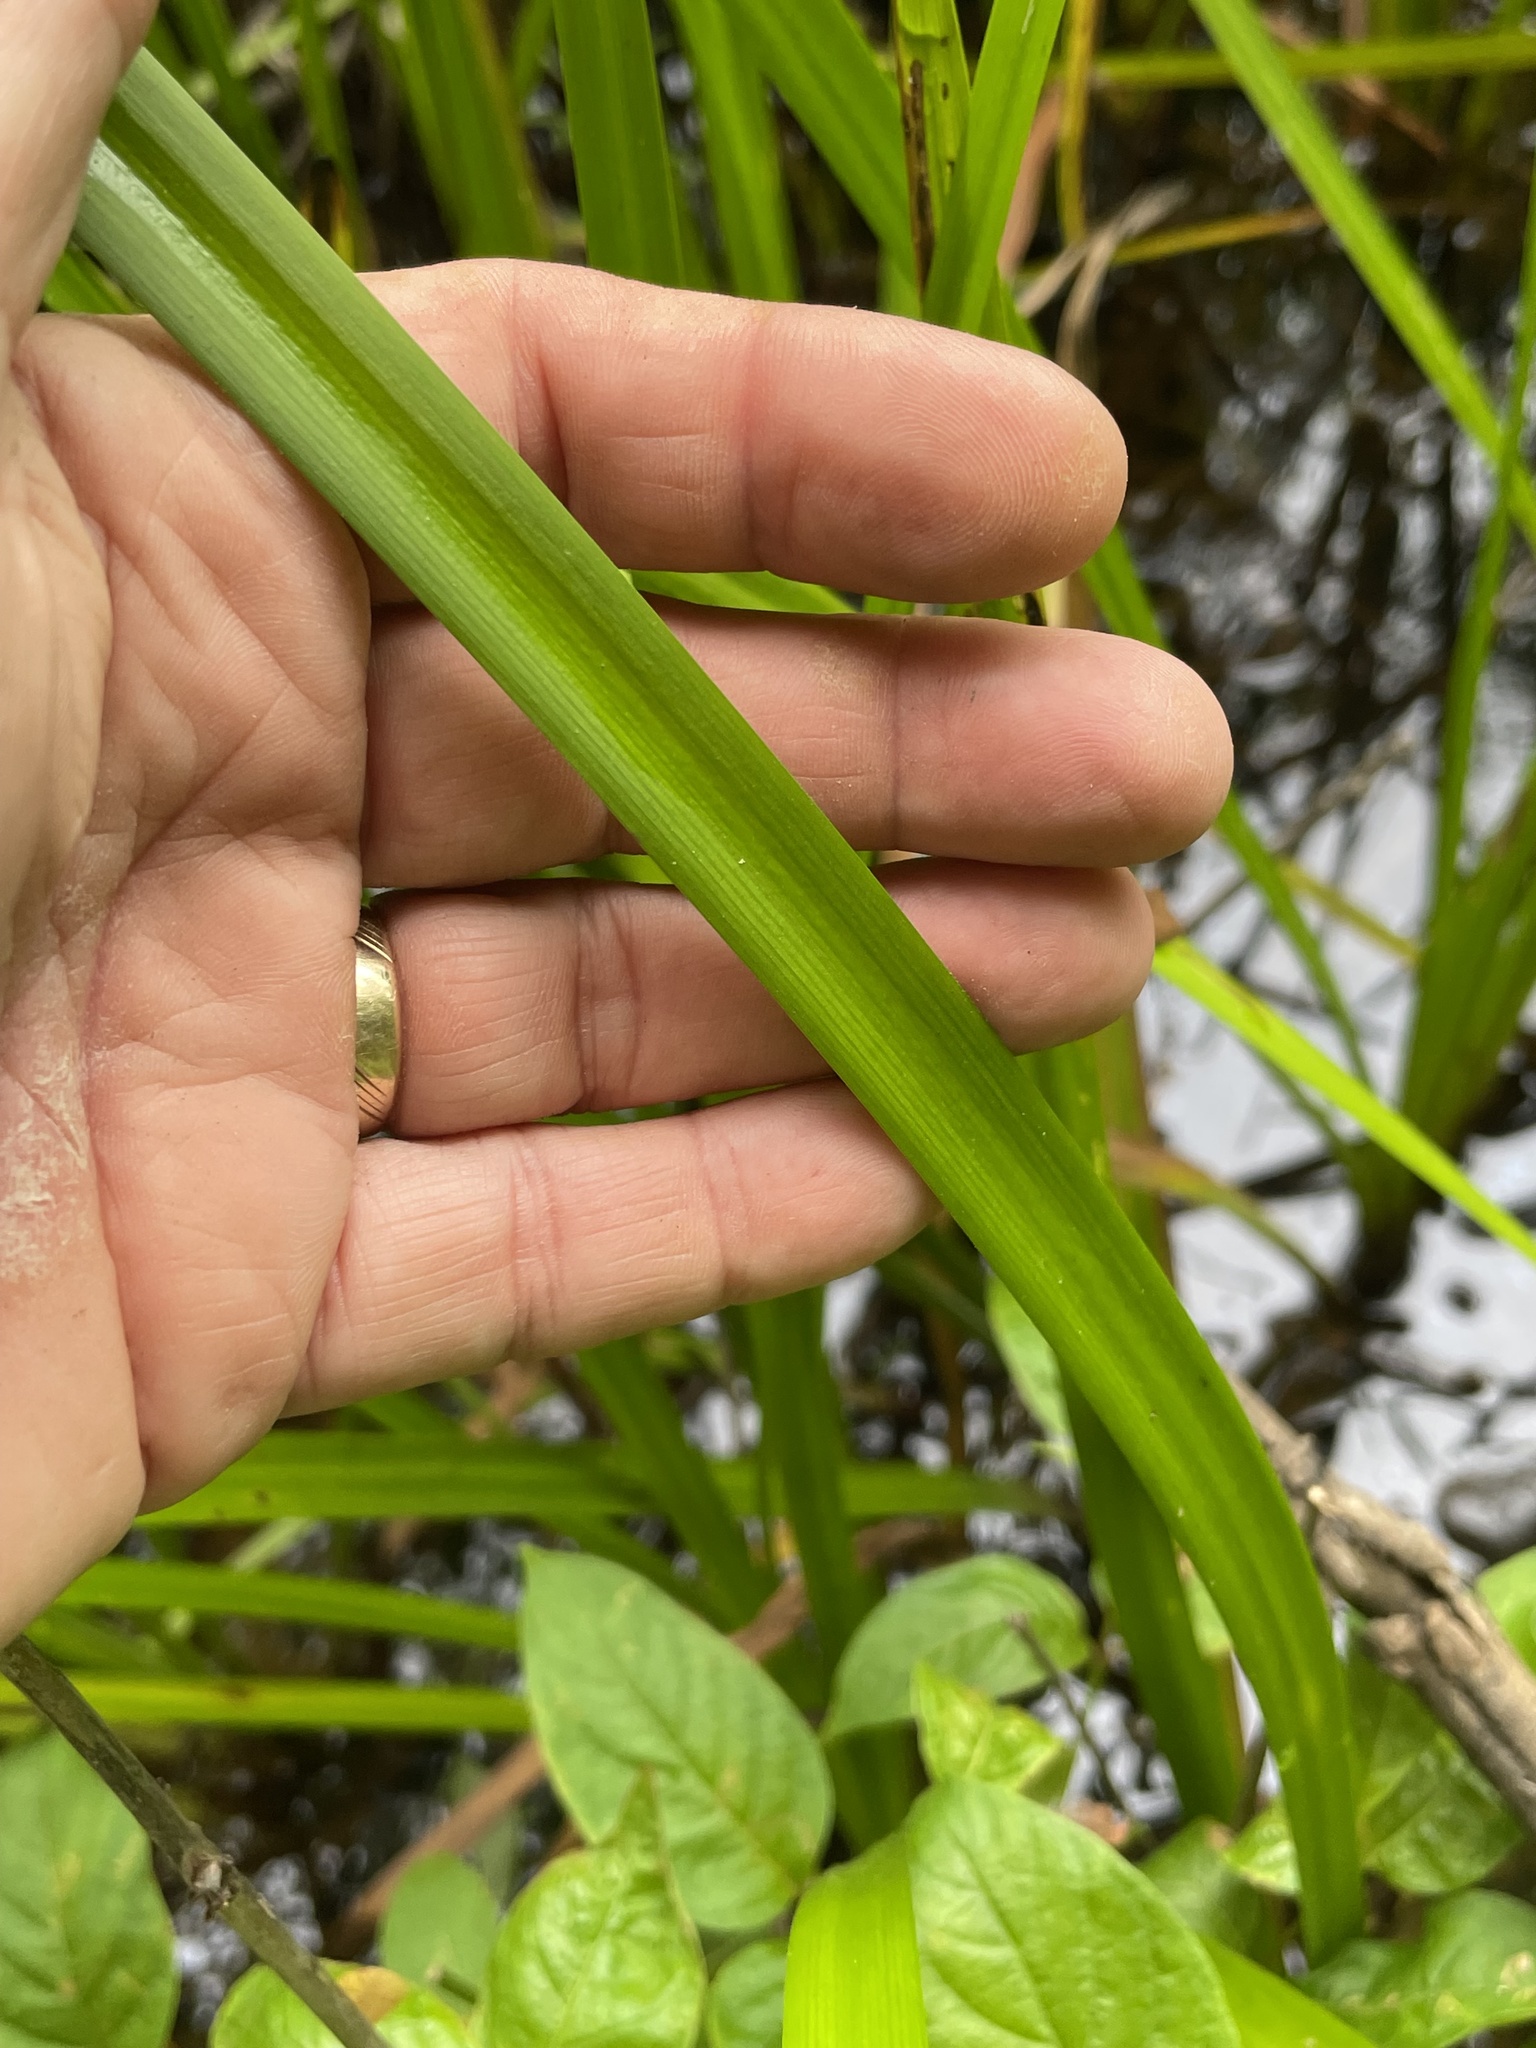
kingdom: Plantae
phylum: Tracheophyta
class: Liliopsida
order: Poales
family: Typhaceae
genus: Sparganium
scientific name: Sparganium americanum
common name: American burreed
